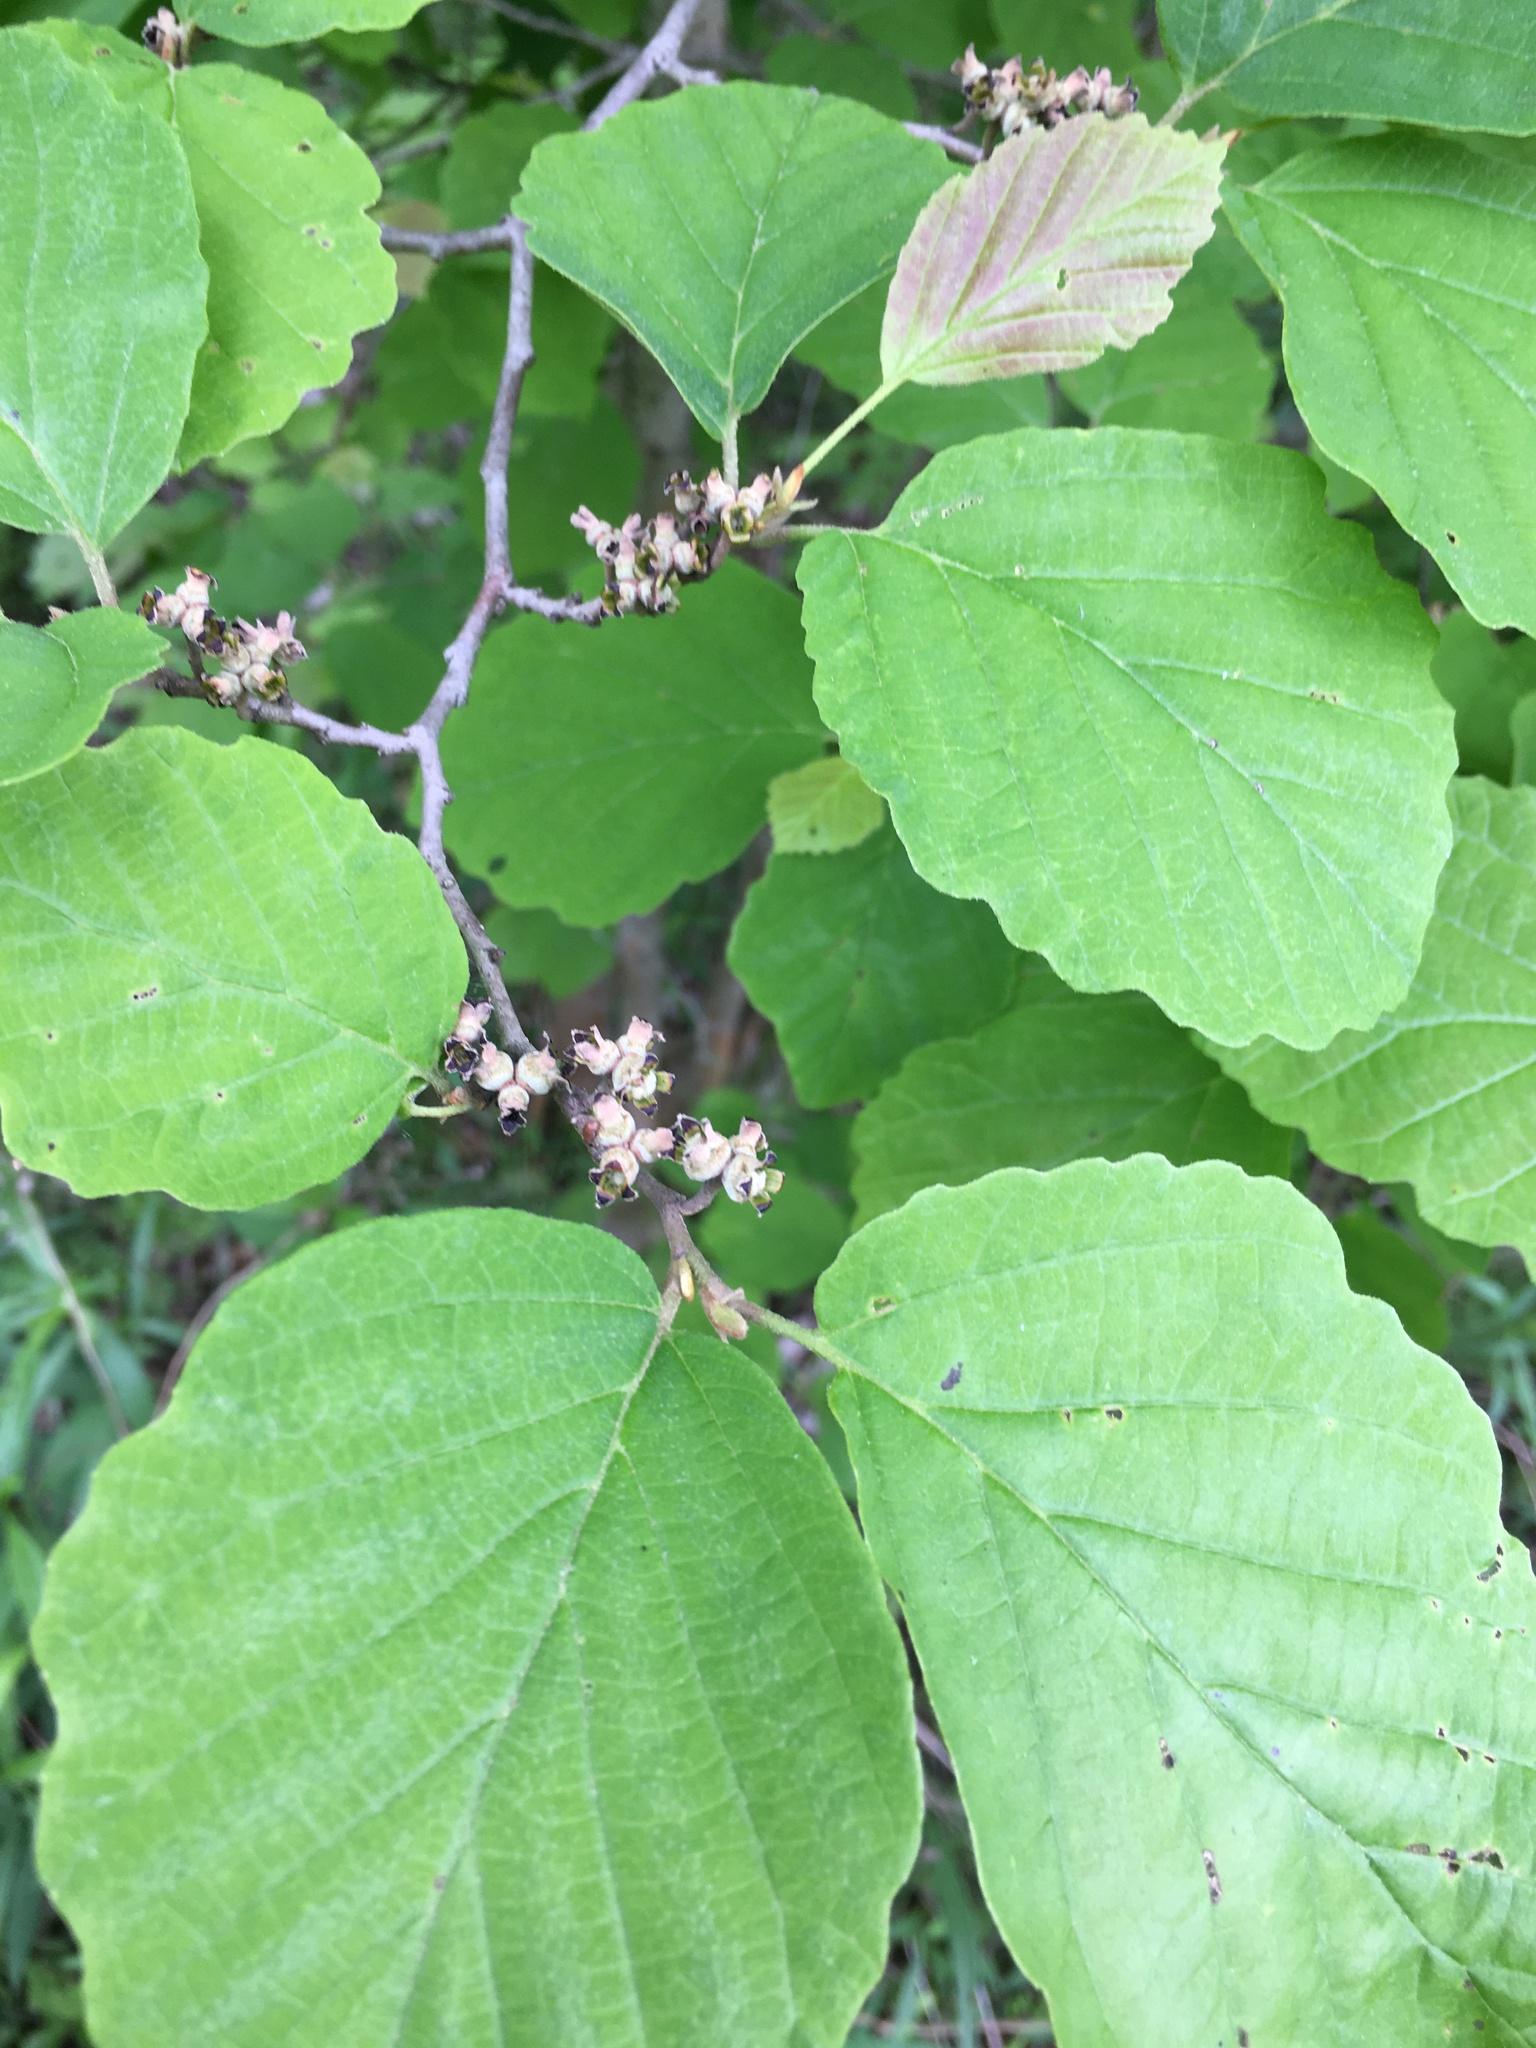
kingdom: Plantae
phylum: Tracheophyta
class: Magnoliopsida
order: Saxifragales
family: Hamamelidaceae
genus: Hamamelis
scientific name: Hamamelis virginiana
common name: Witch-hazel
